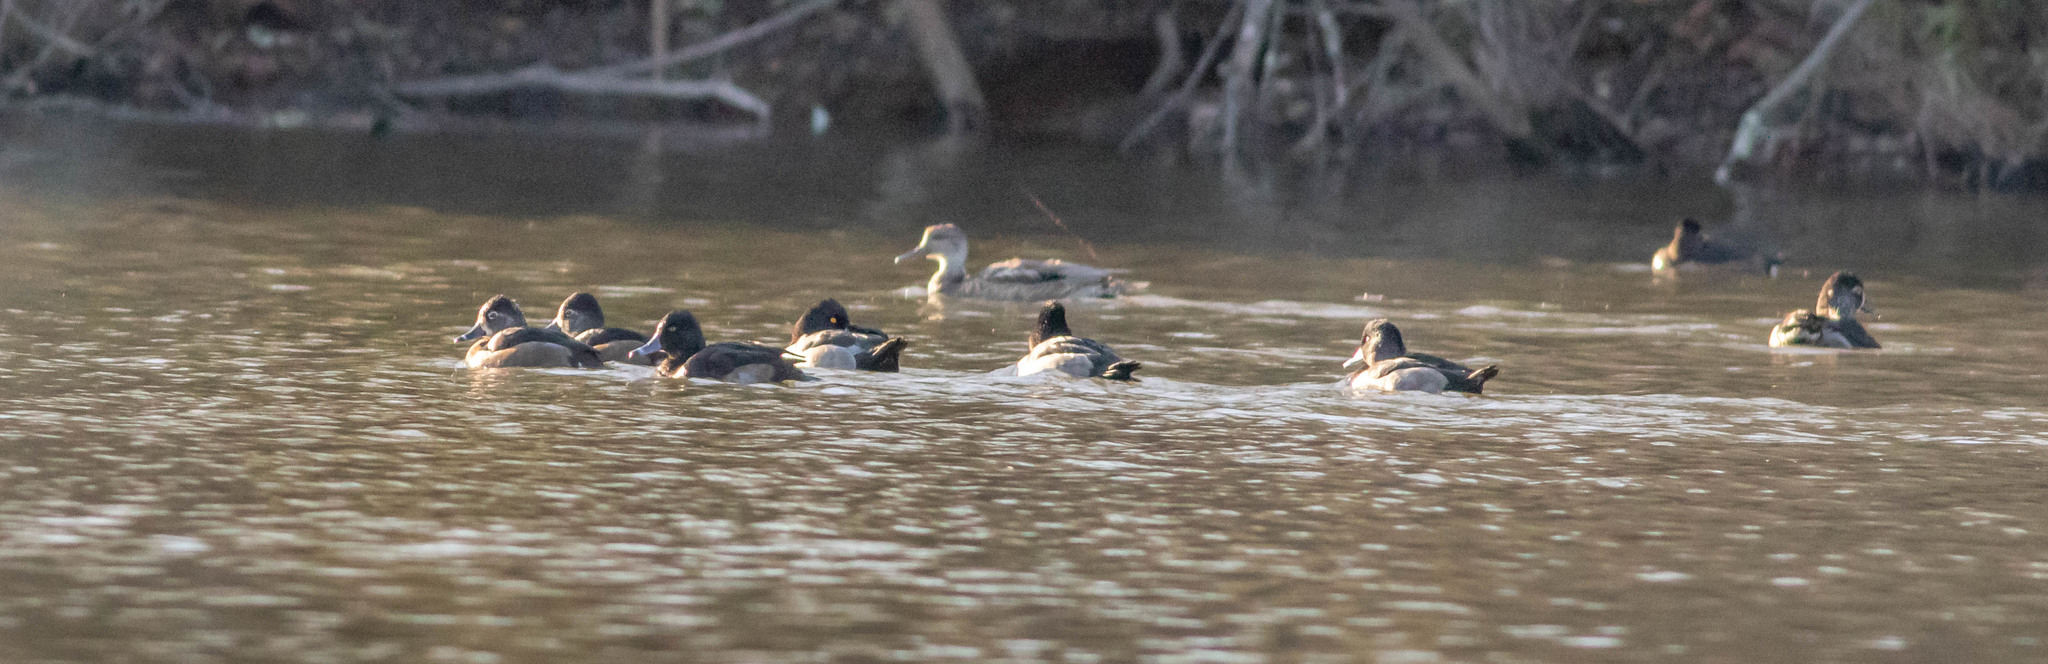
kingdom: Animalia
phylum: Chordata
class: Aves
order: Anseriformes
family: Anatidae
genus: Mareca
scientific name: Mareca strepera
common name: Gadwall
